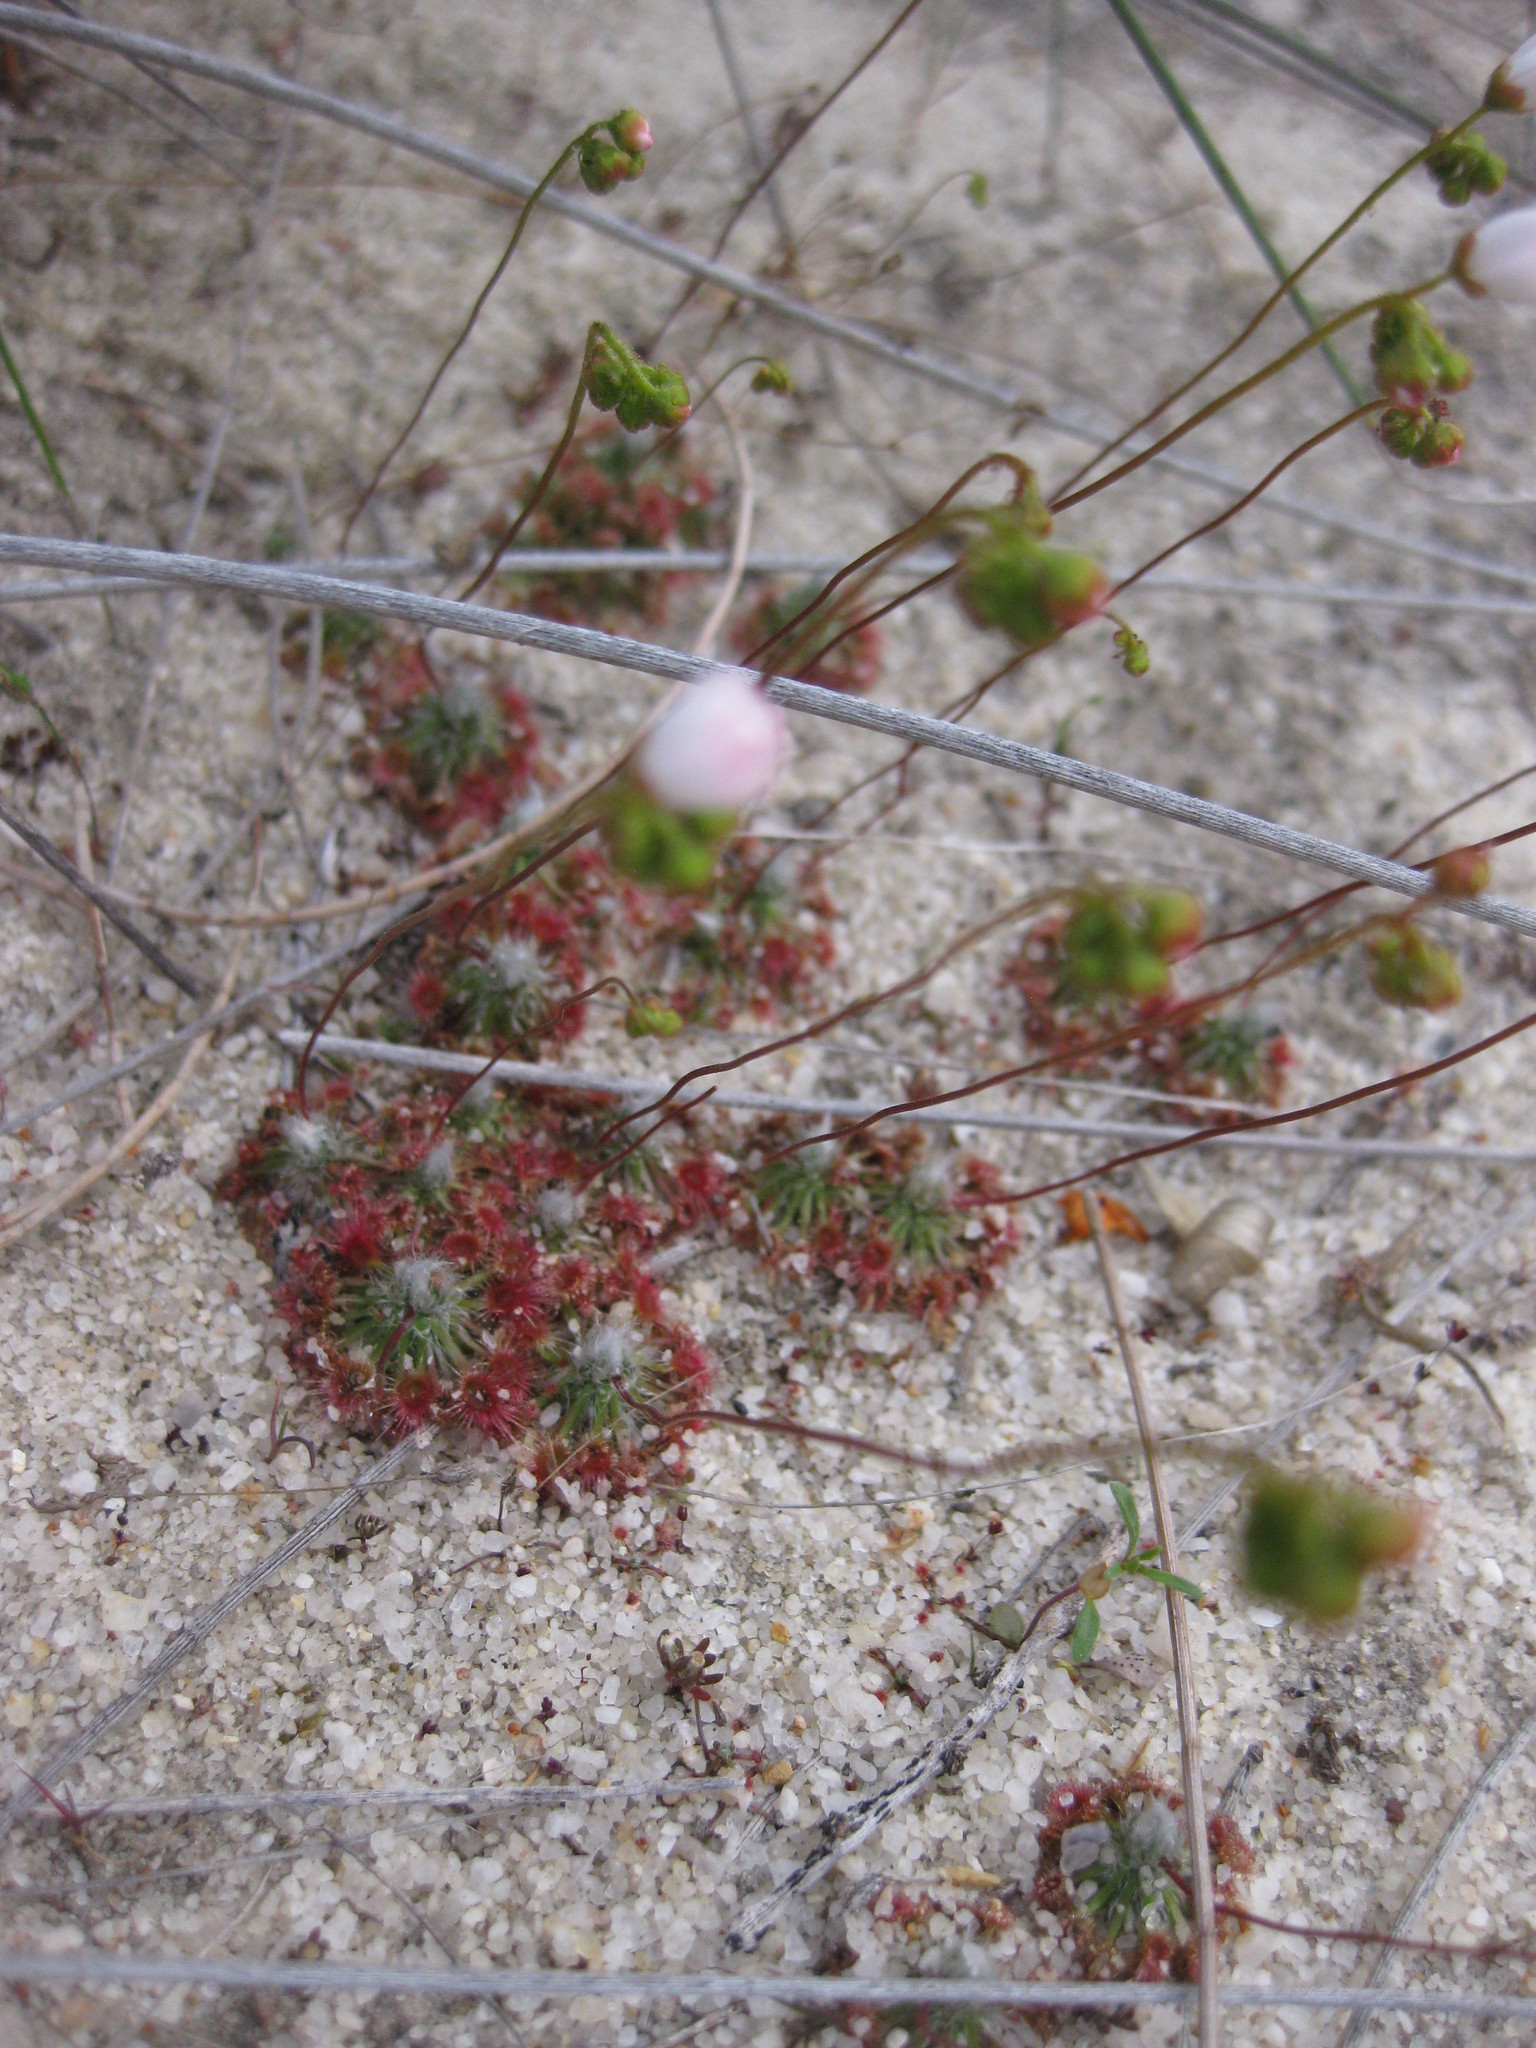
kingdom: Plantae
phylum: Tracheophyta
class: Magnoliopsida
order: Caryophyllales
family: Droseraceae
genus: Drosera
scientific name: Drosera eneabba
